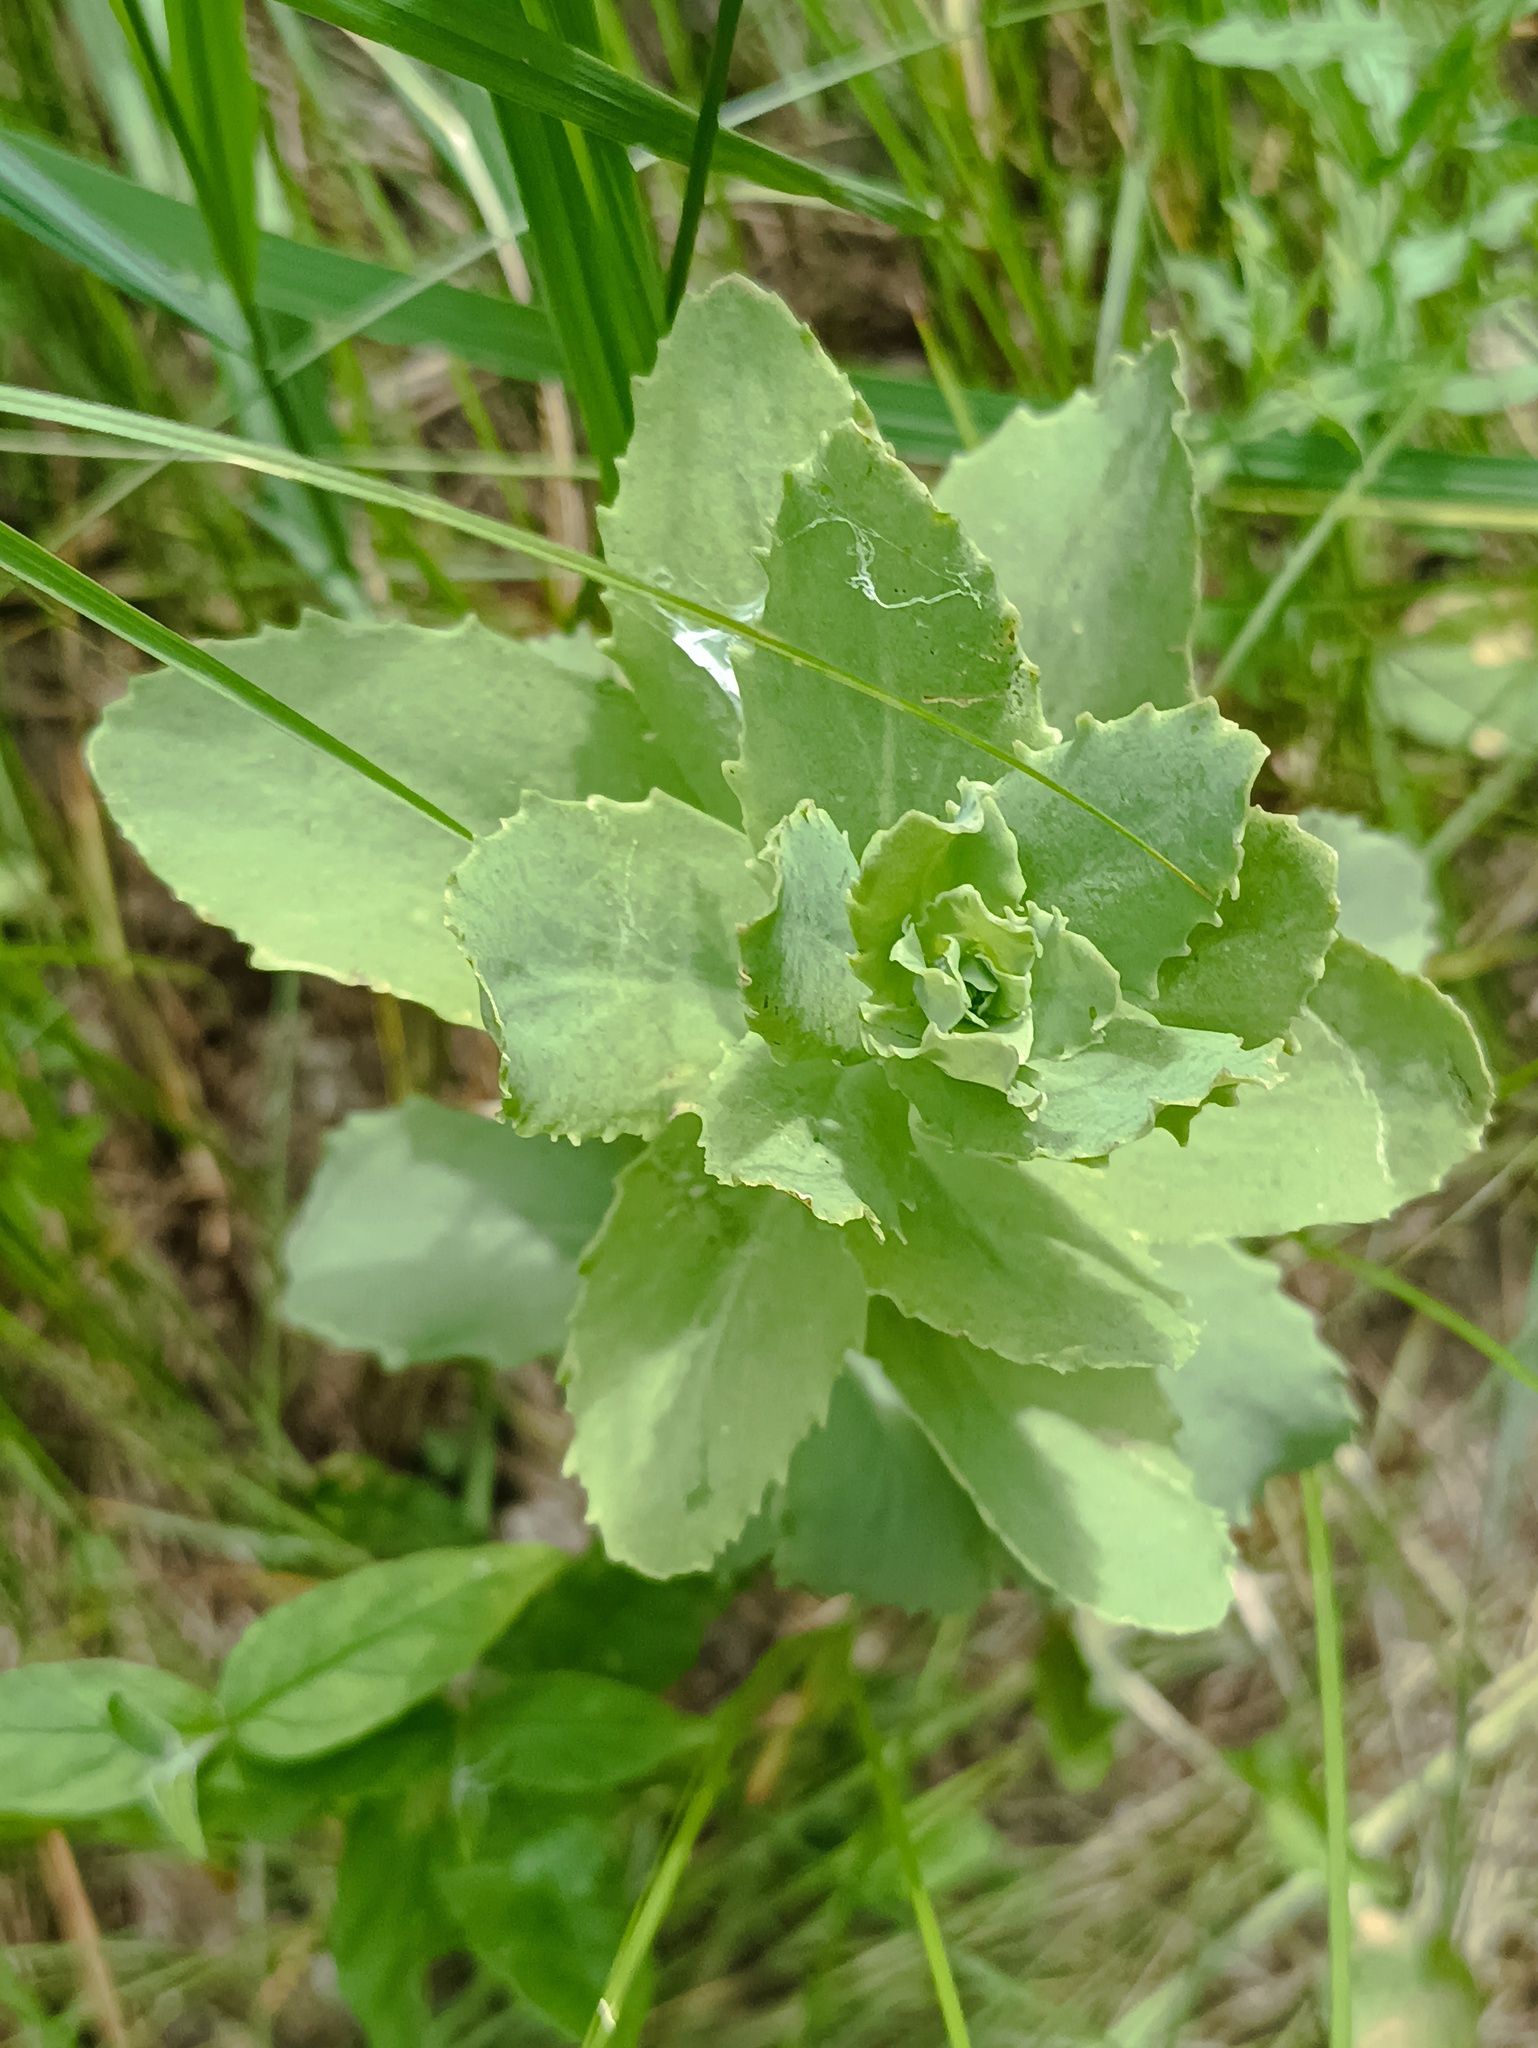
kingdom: Plantae
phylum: Tracheophyta
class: Magnoliopsida
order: Saxifragales
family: Crassulaceae
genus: Hylotelephium
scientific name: Hylotelephium telephium
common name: Live-forever
